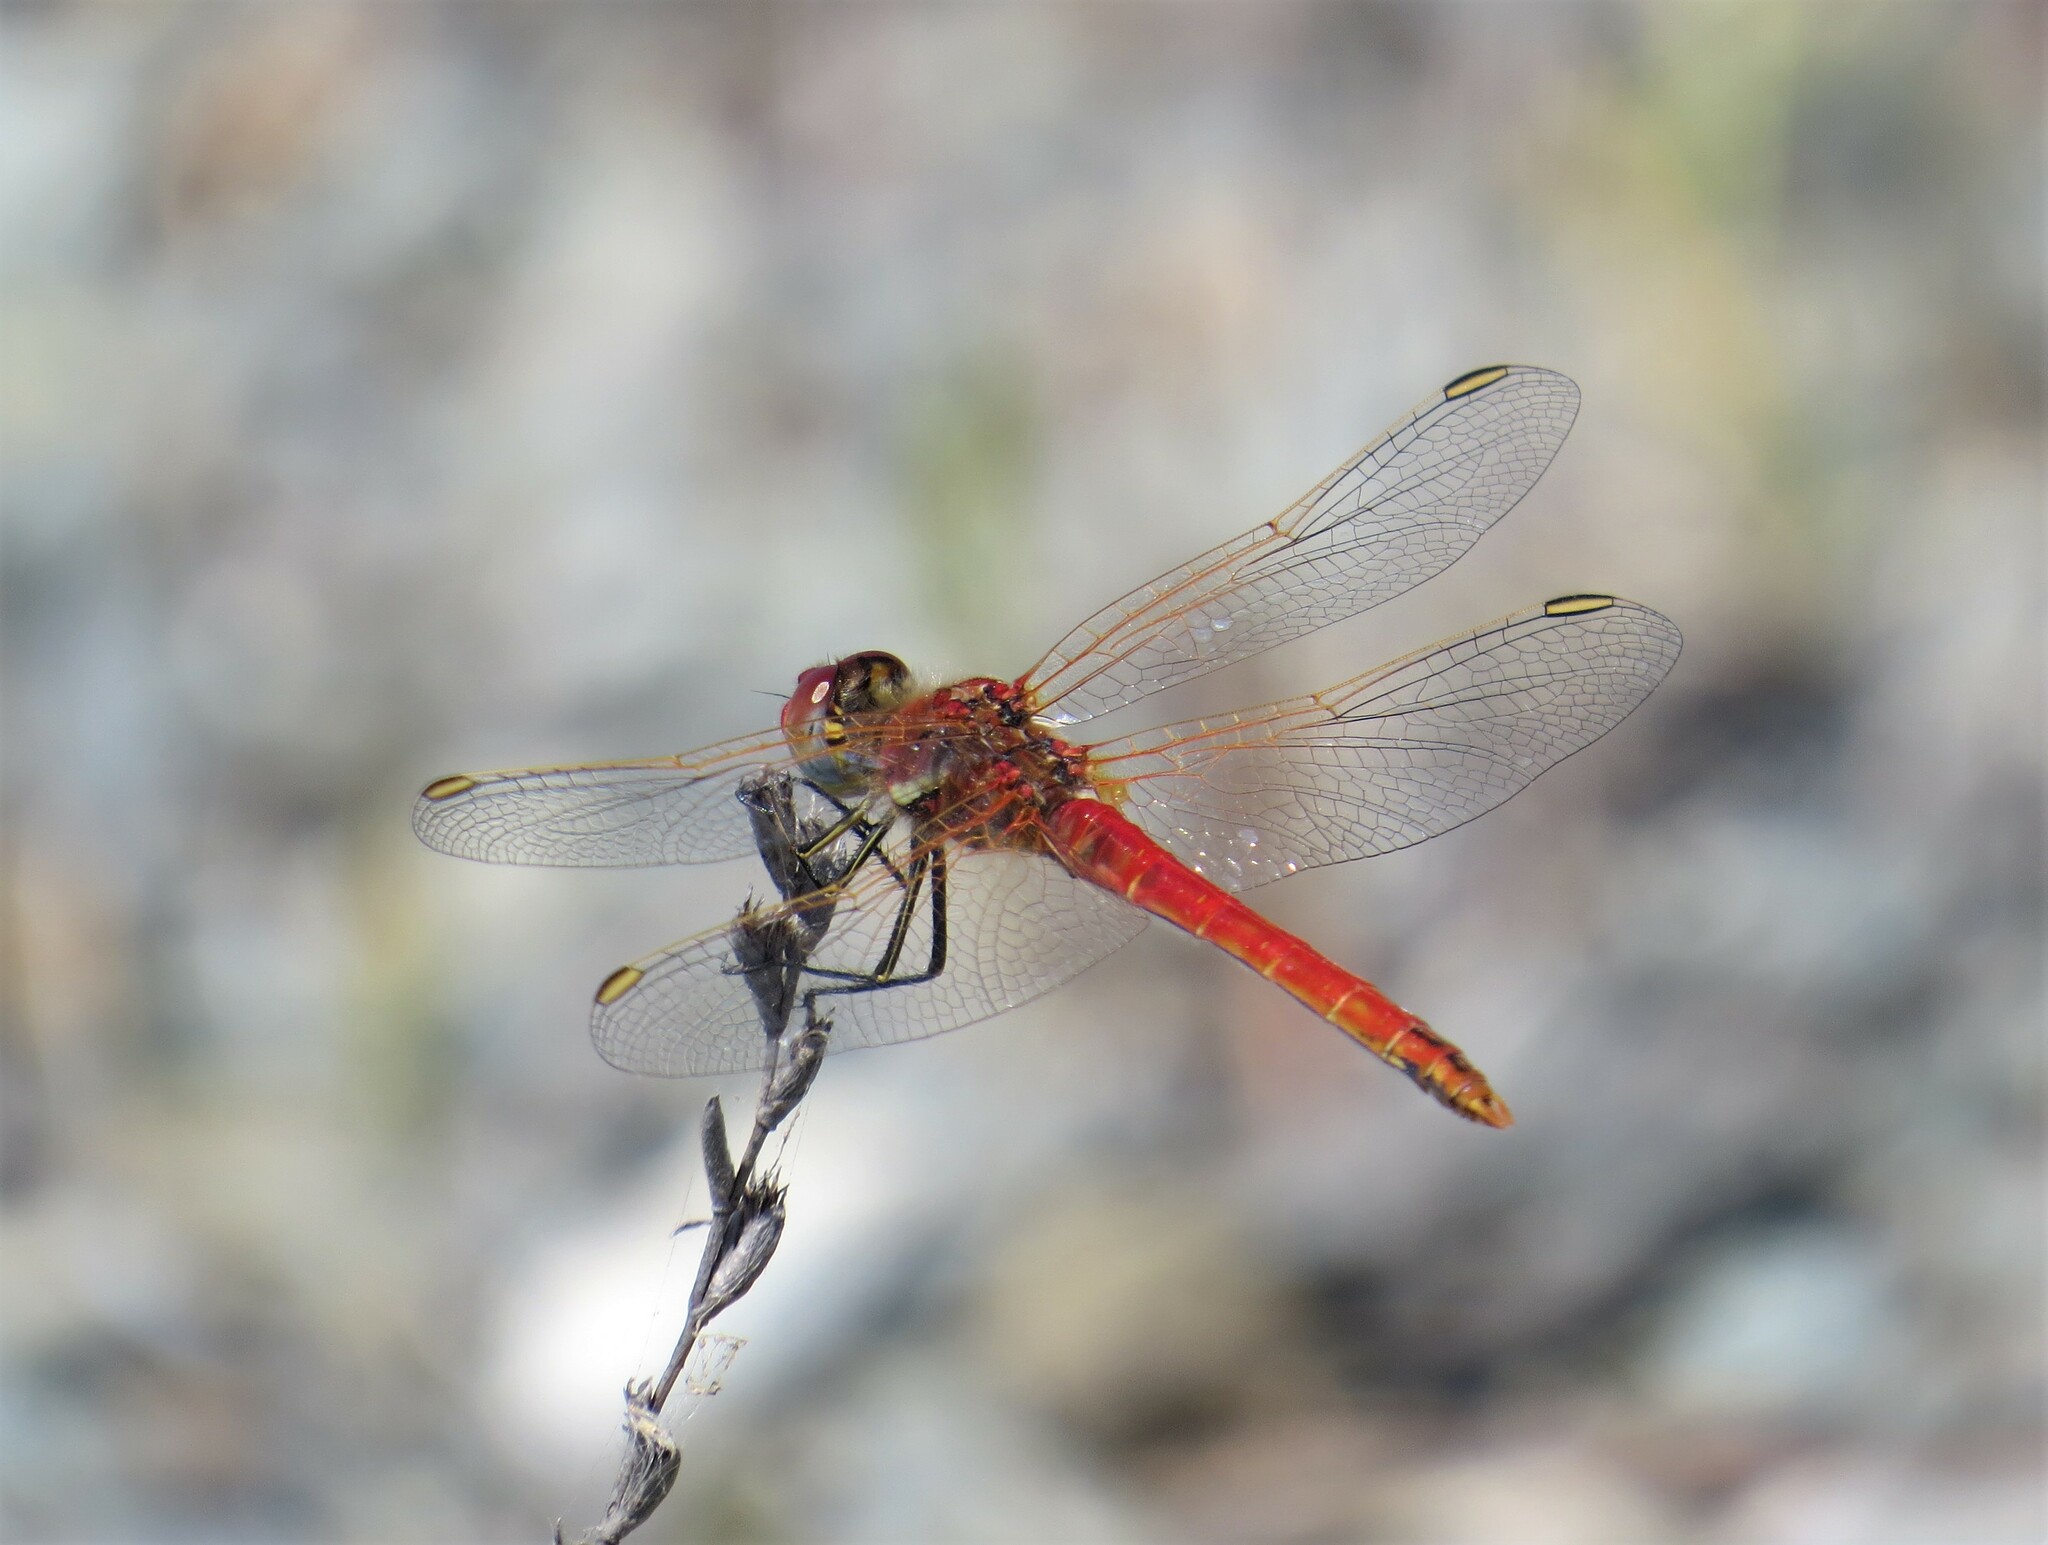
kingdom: Animalia
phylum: Arthropoda
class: Insecta
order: Odonata
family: Libellulidae
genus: Sympetrum
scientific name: Sympetrum fonscolombii
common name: Red-veined darter
